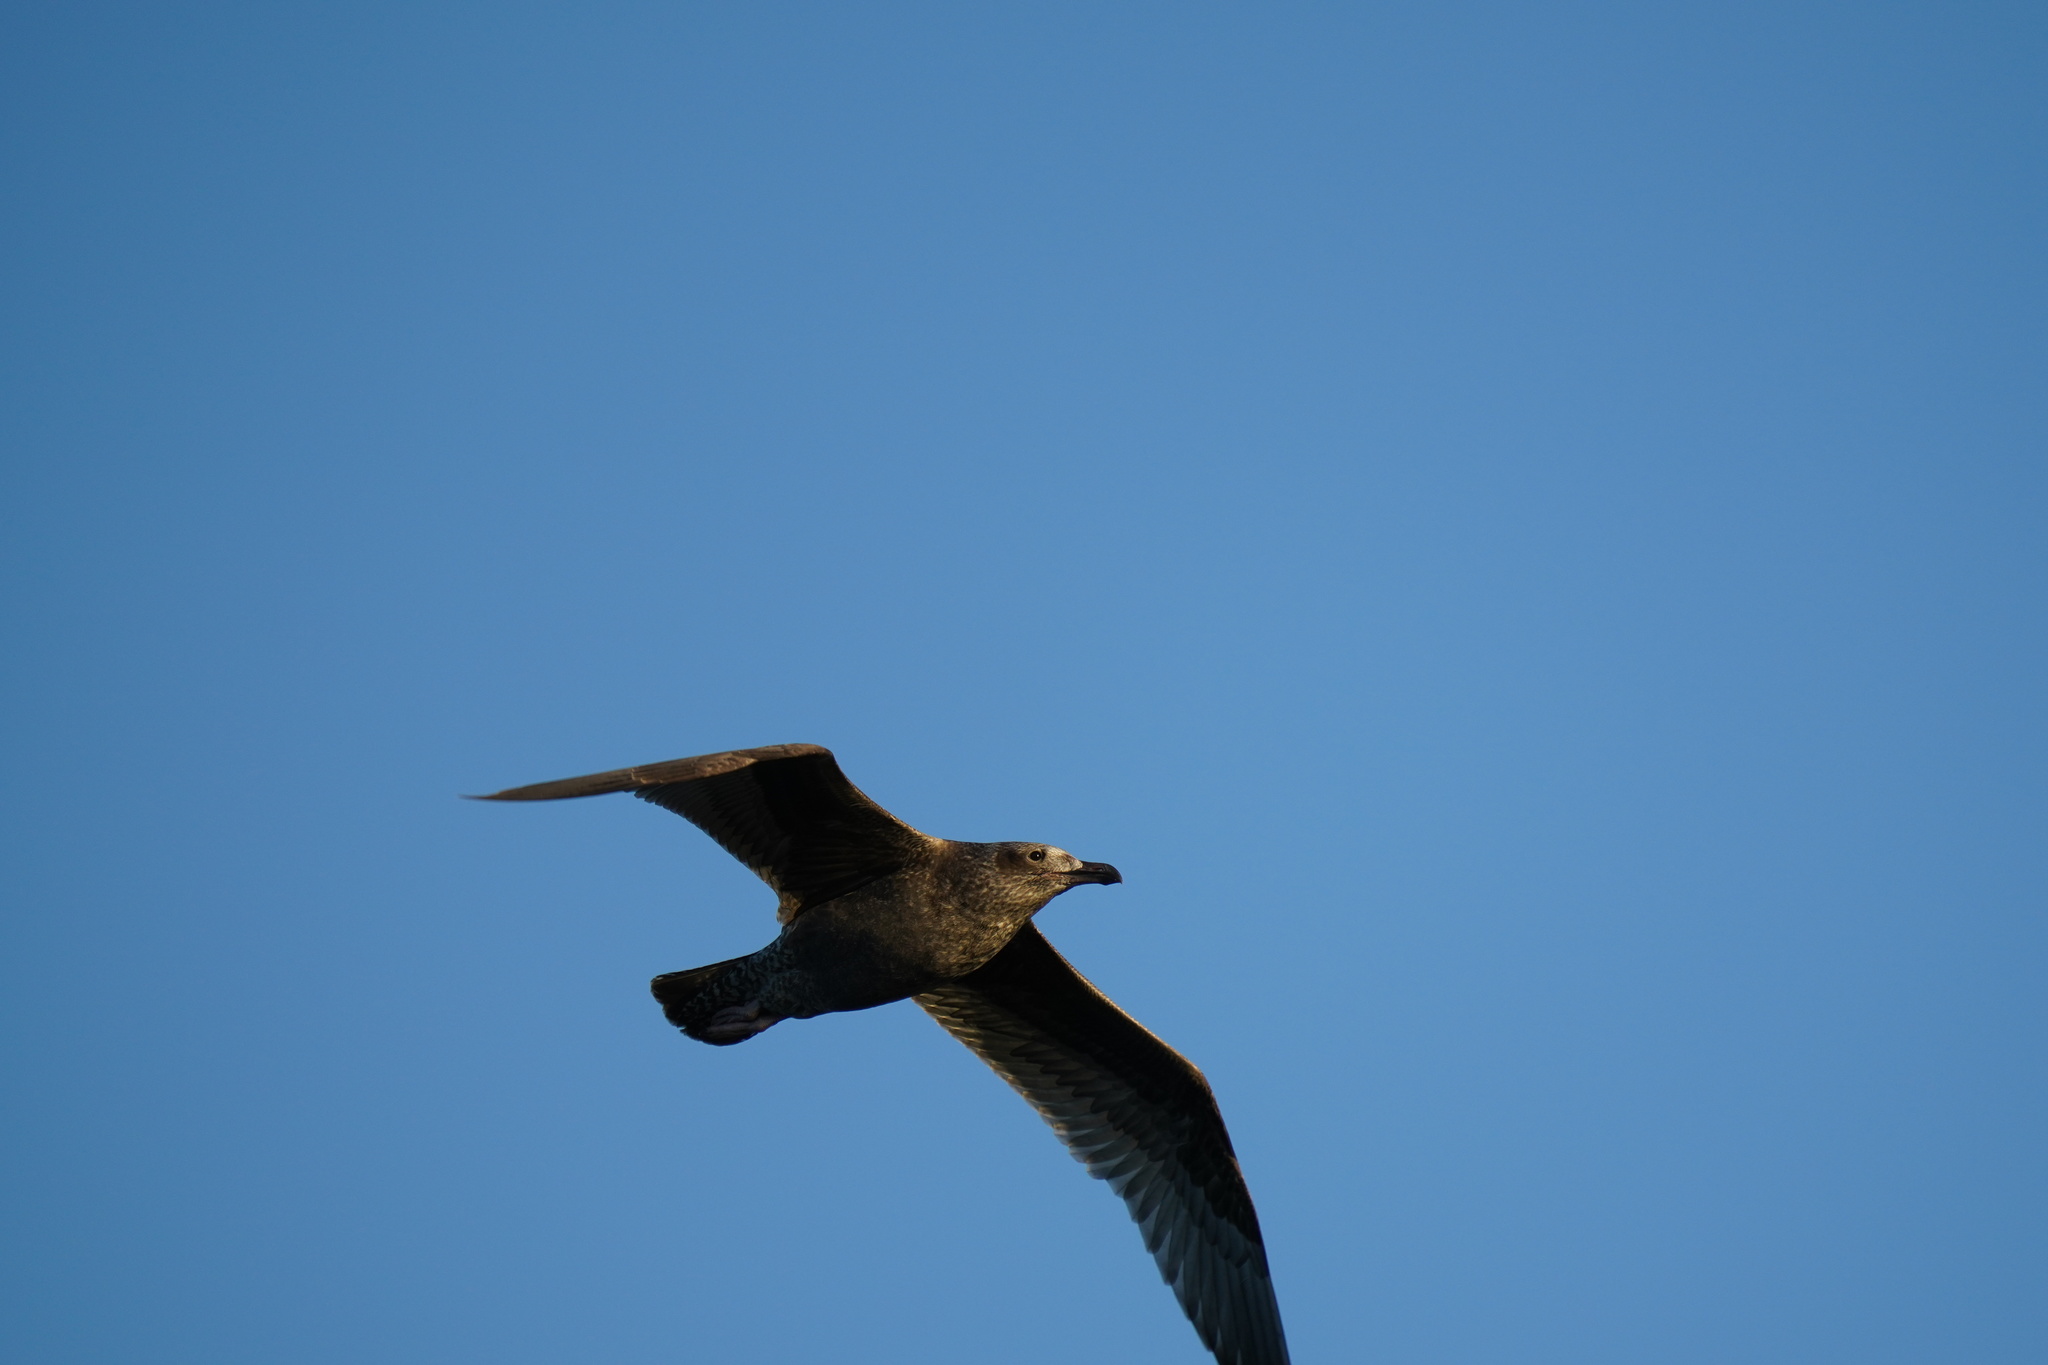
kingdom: Animalia
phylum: Chordata
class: Aves
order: Charadriiformes
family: Laridae
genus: Larus
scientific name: Larus argentatus
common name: Herring gull
